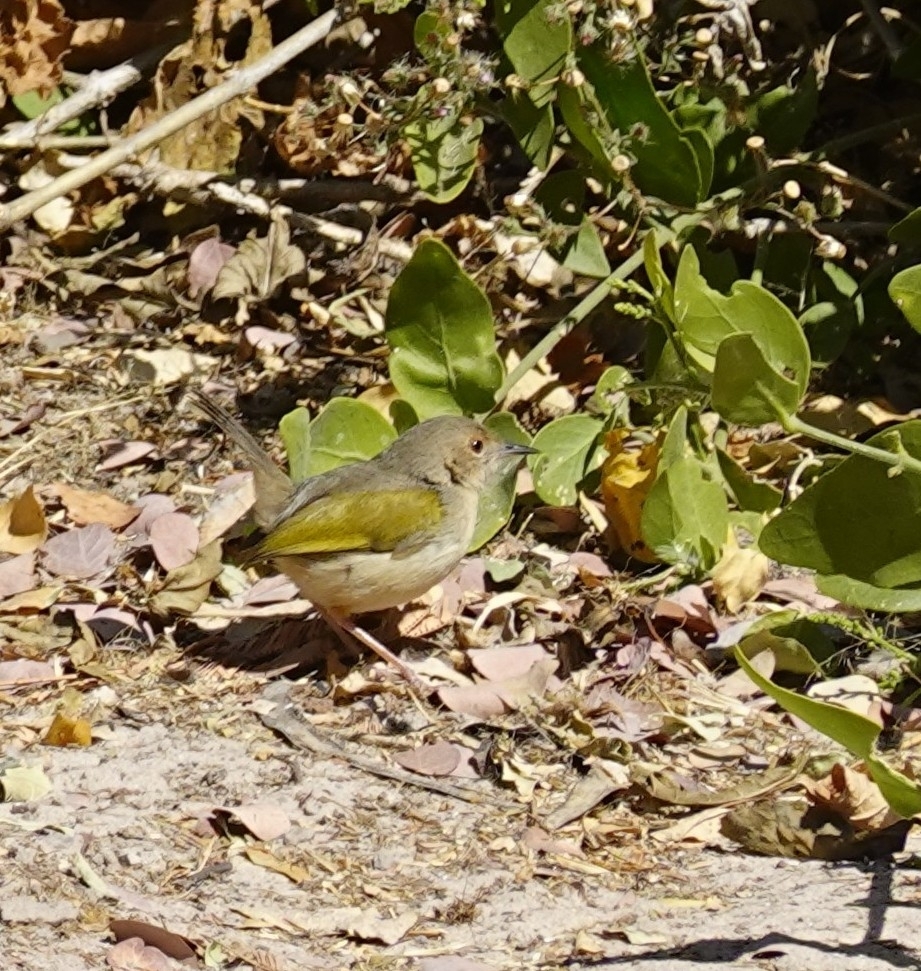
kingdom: Animalia
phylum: Chordata
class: Aves
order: Passeriformes
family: Cisticolidae
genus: Camaroptera
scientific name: Camaroptera brachyura
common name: Green-backed camaroptera
